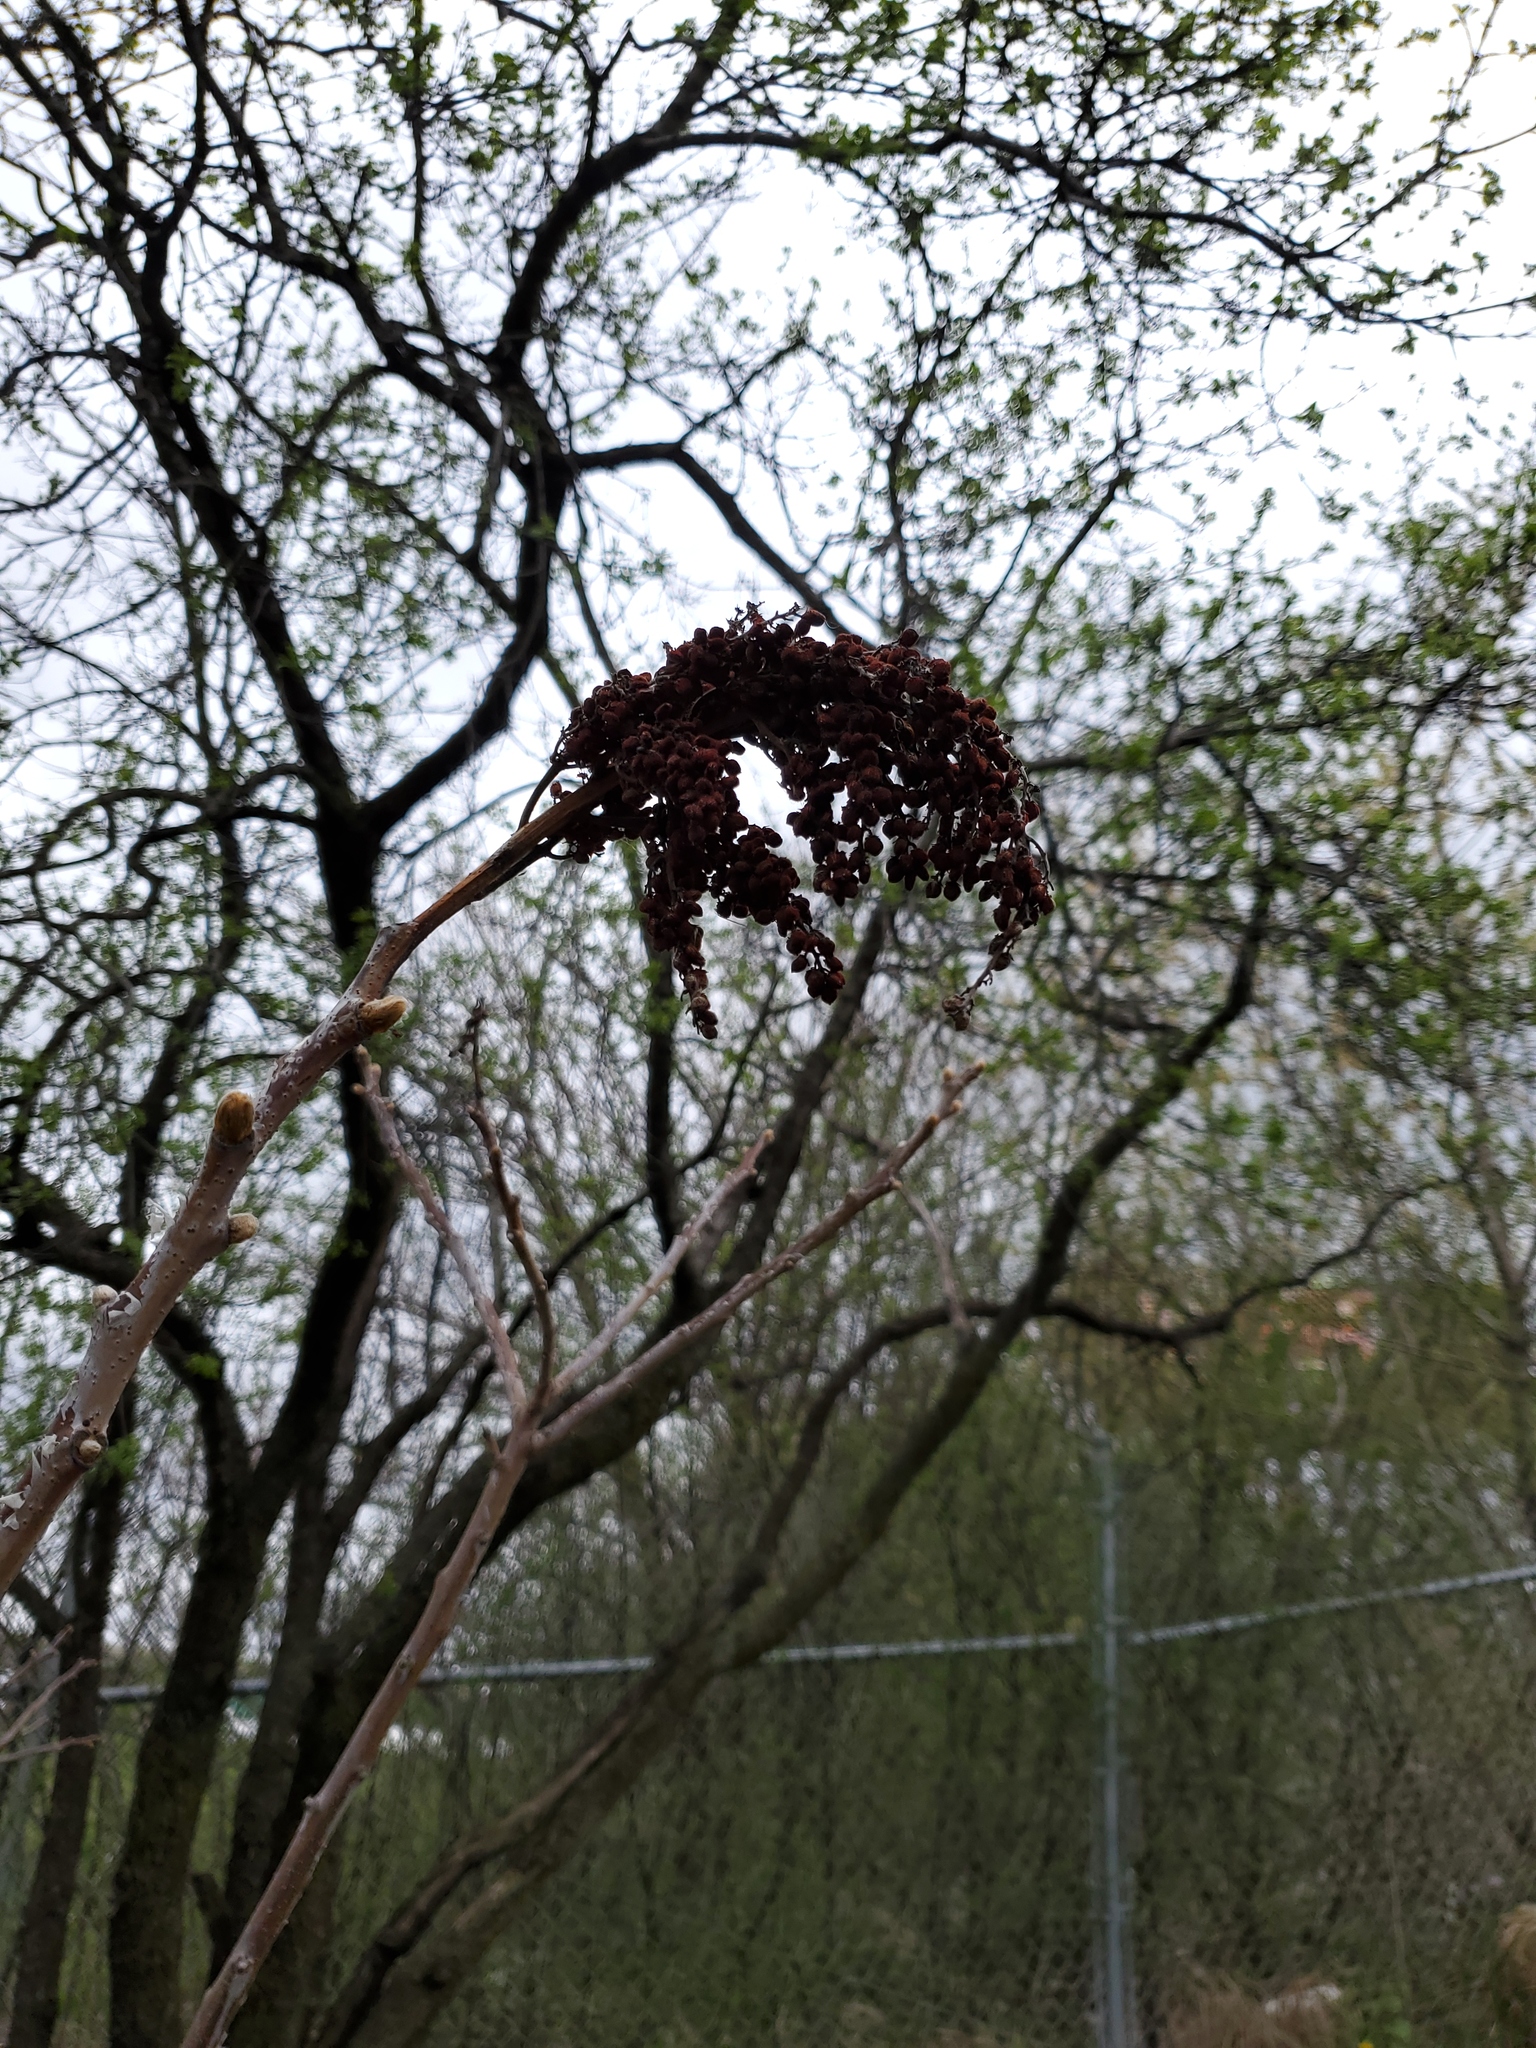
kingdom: Plantae
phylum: Tracheophyta
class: Magnoliopsida
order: Sapindales
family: Anacardiaceae
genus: Rhus
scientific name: Rhus glabra
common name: Scarlet sumac
